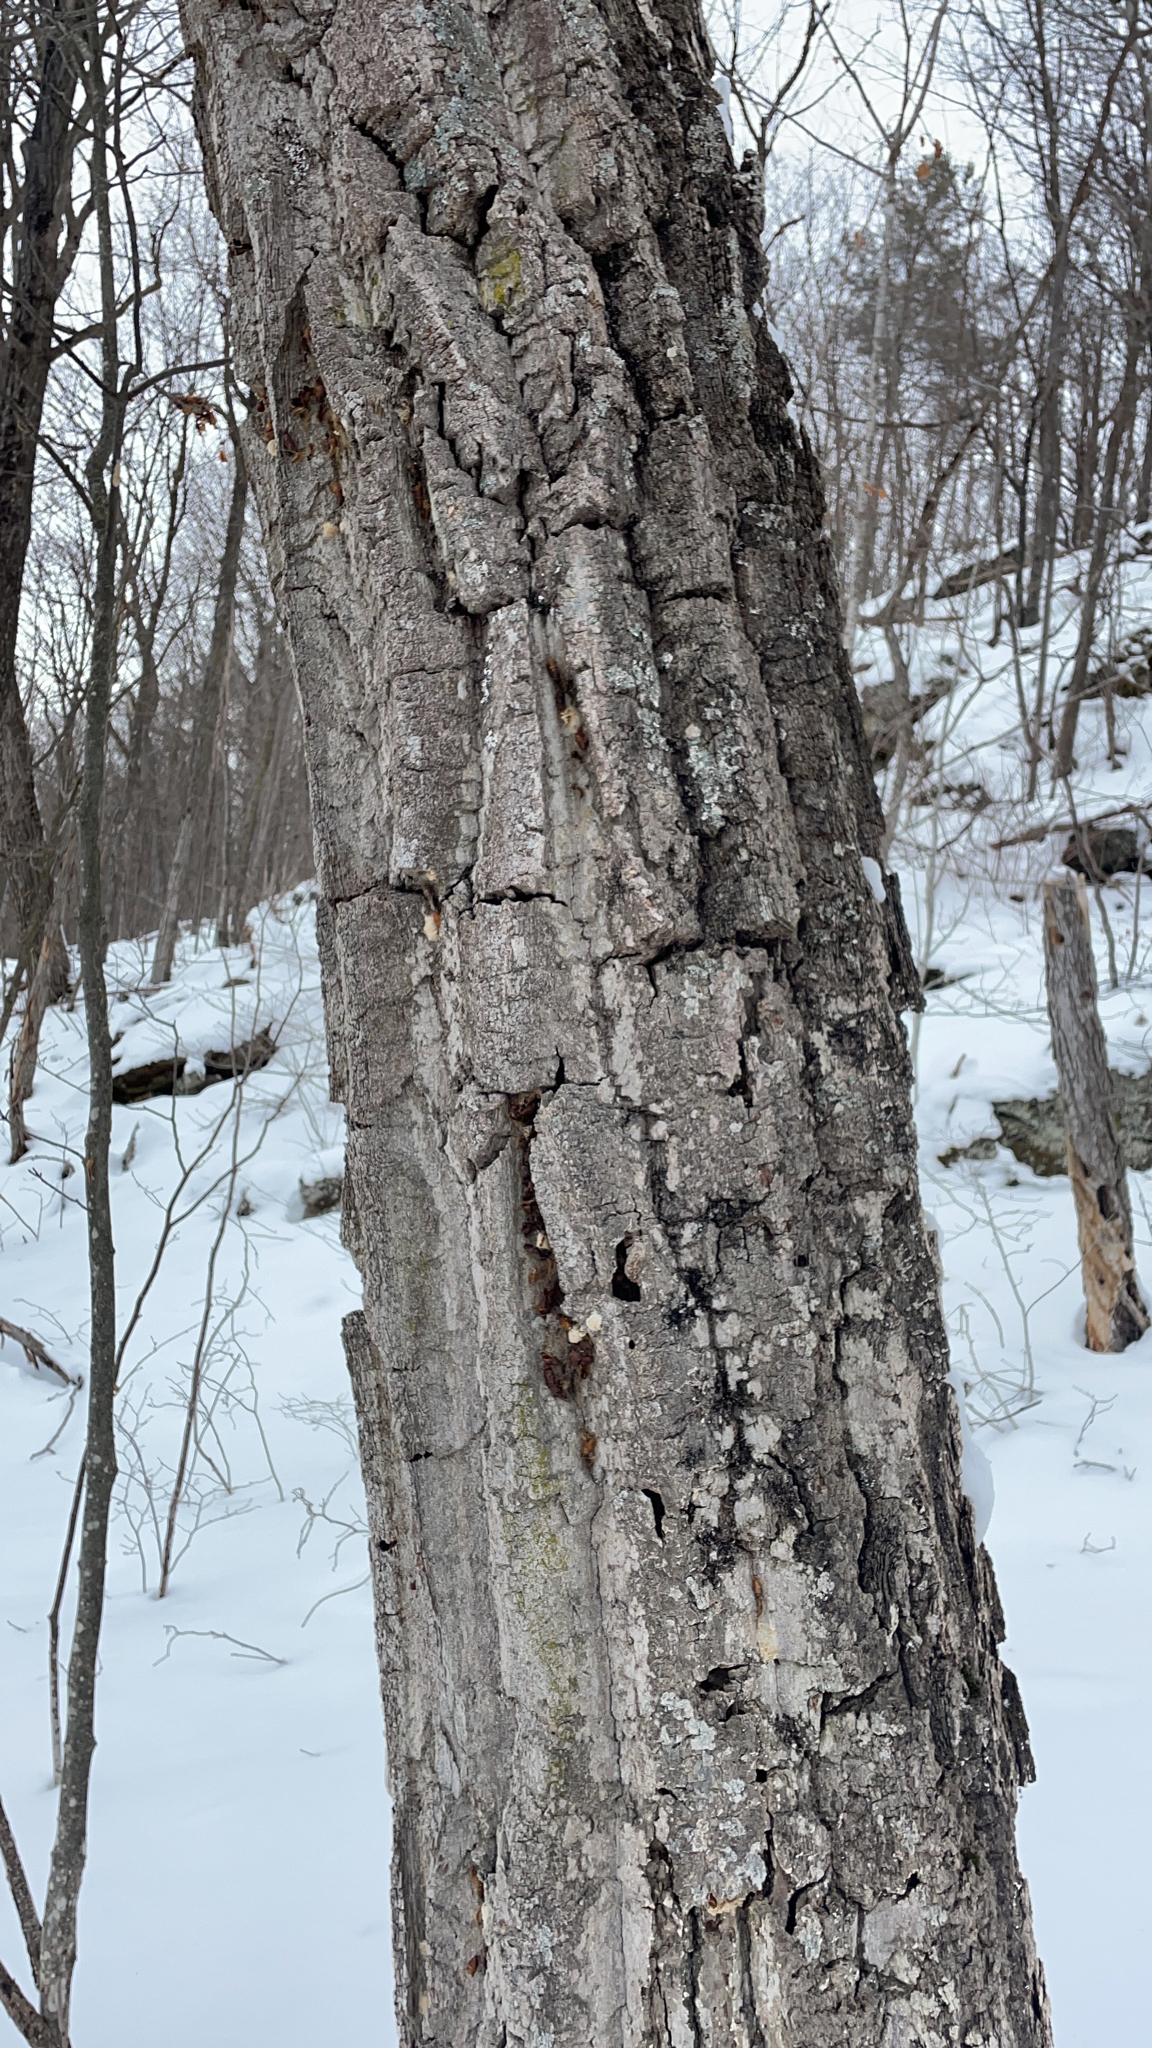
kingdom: Plantae
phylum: Tracheophyta
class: Magnoliopsida
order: Fagales
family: Fagaceae
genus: Quercus
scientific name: Quercus montana
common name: Chestnut oak
